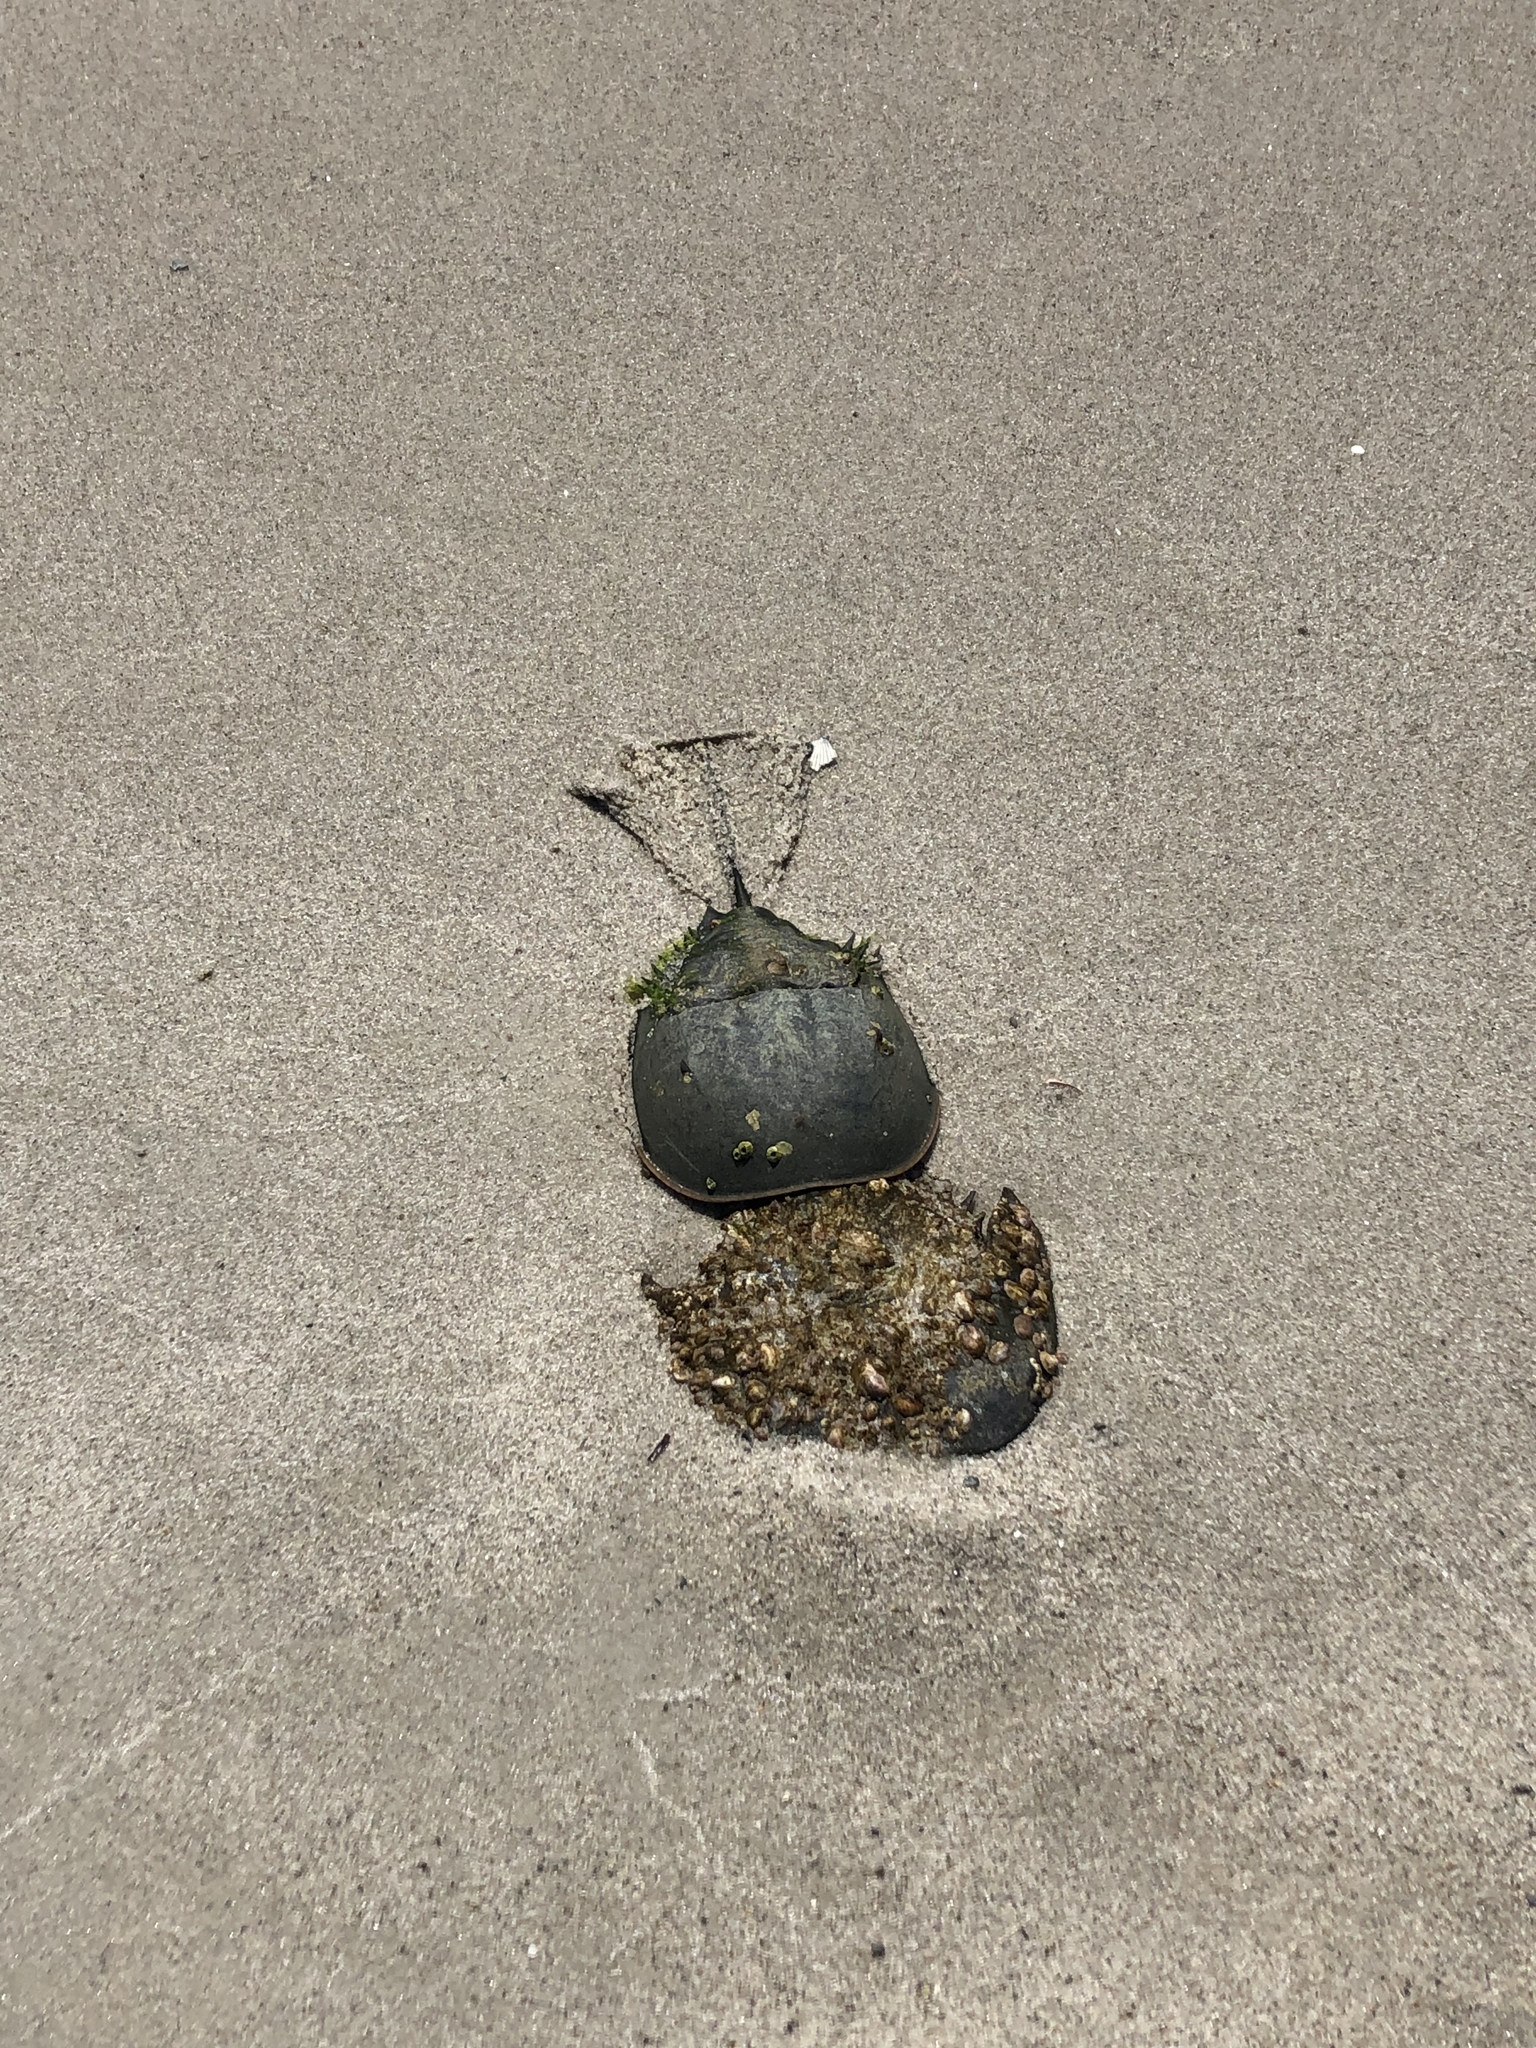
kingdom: Animalia
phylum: Arthropoda
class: Merostomata
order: Xiphosurida
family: Limulidae
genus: Limulus
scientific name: Limulus polyphemus
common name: Horseshoe crab
